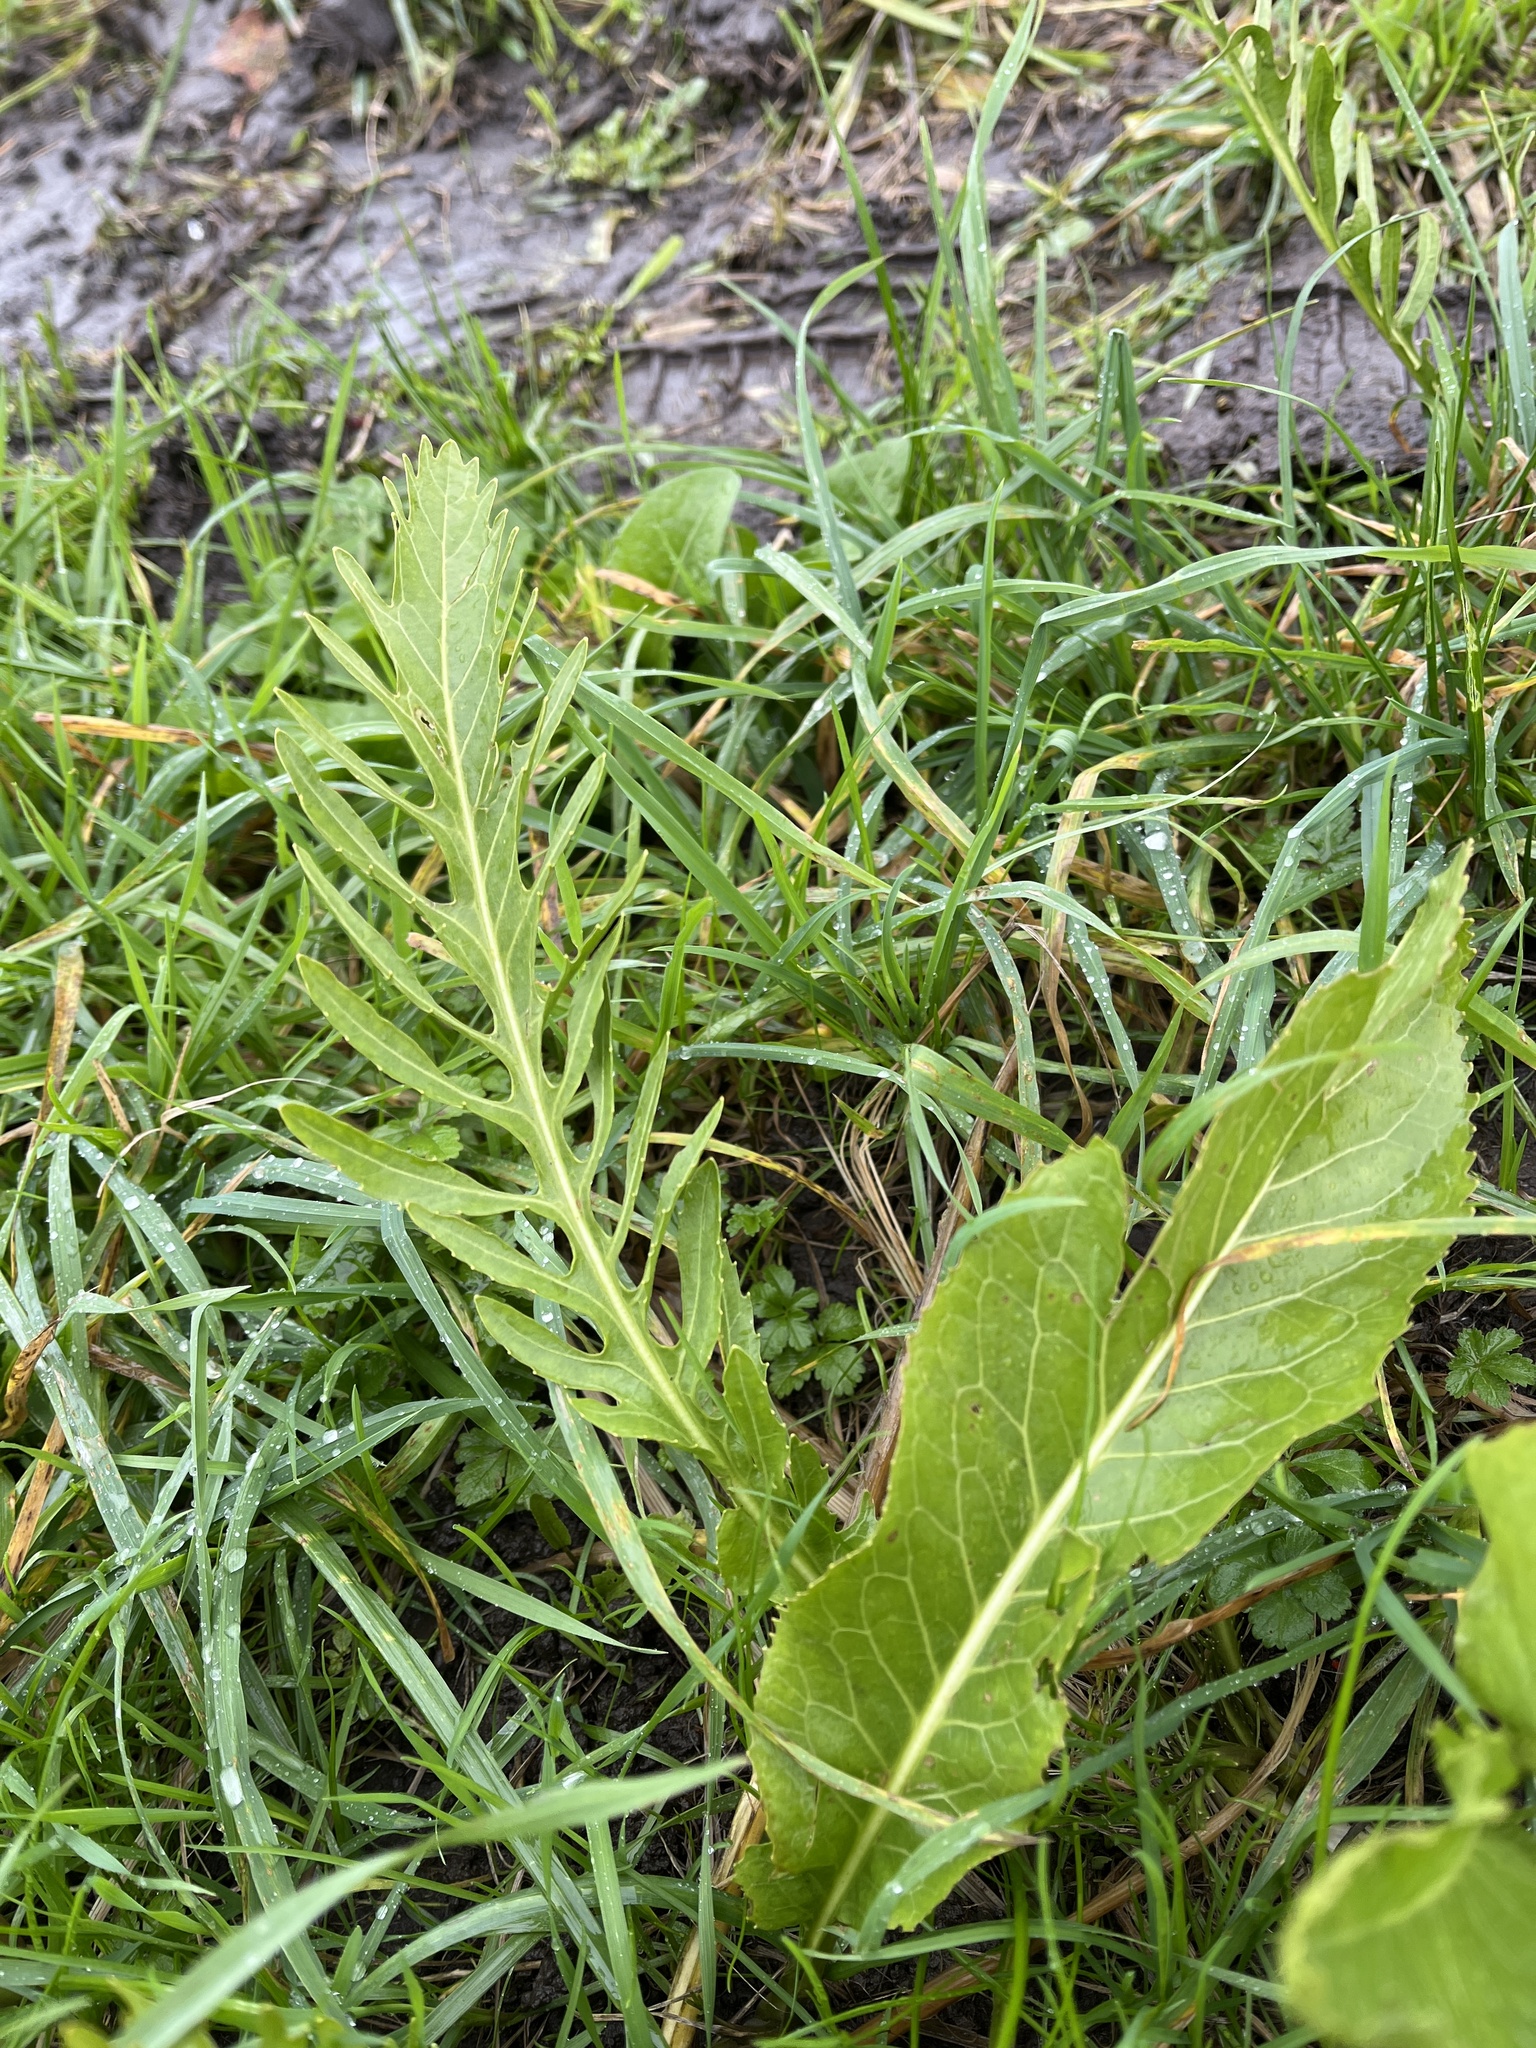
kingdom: Plantae
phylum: Tracheophyta
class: Magnoliopsida
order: Brassicales
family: Brassicaceae
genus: Armoracia
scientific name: Armoracia rusticana
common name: Horseradish
